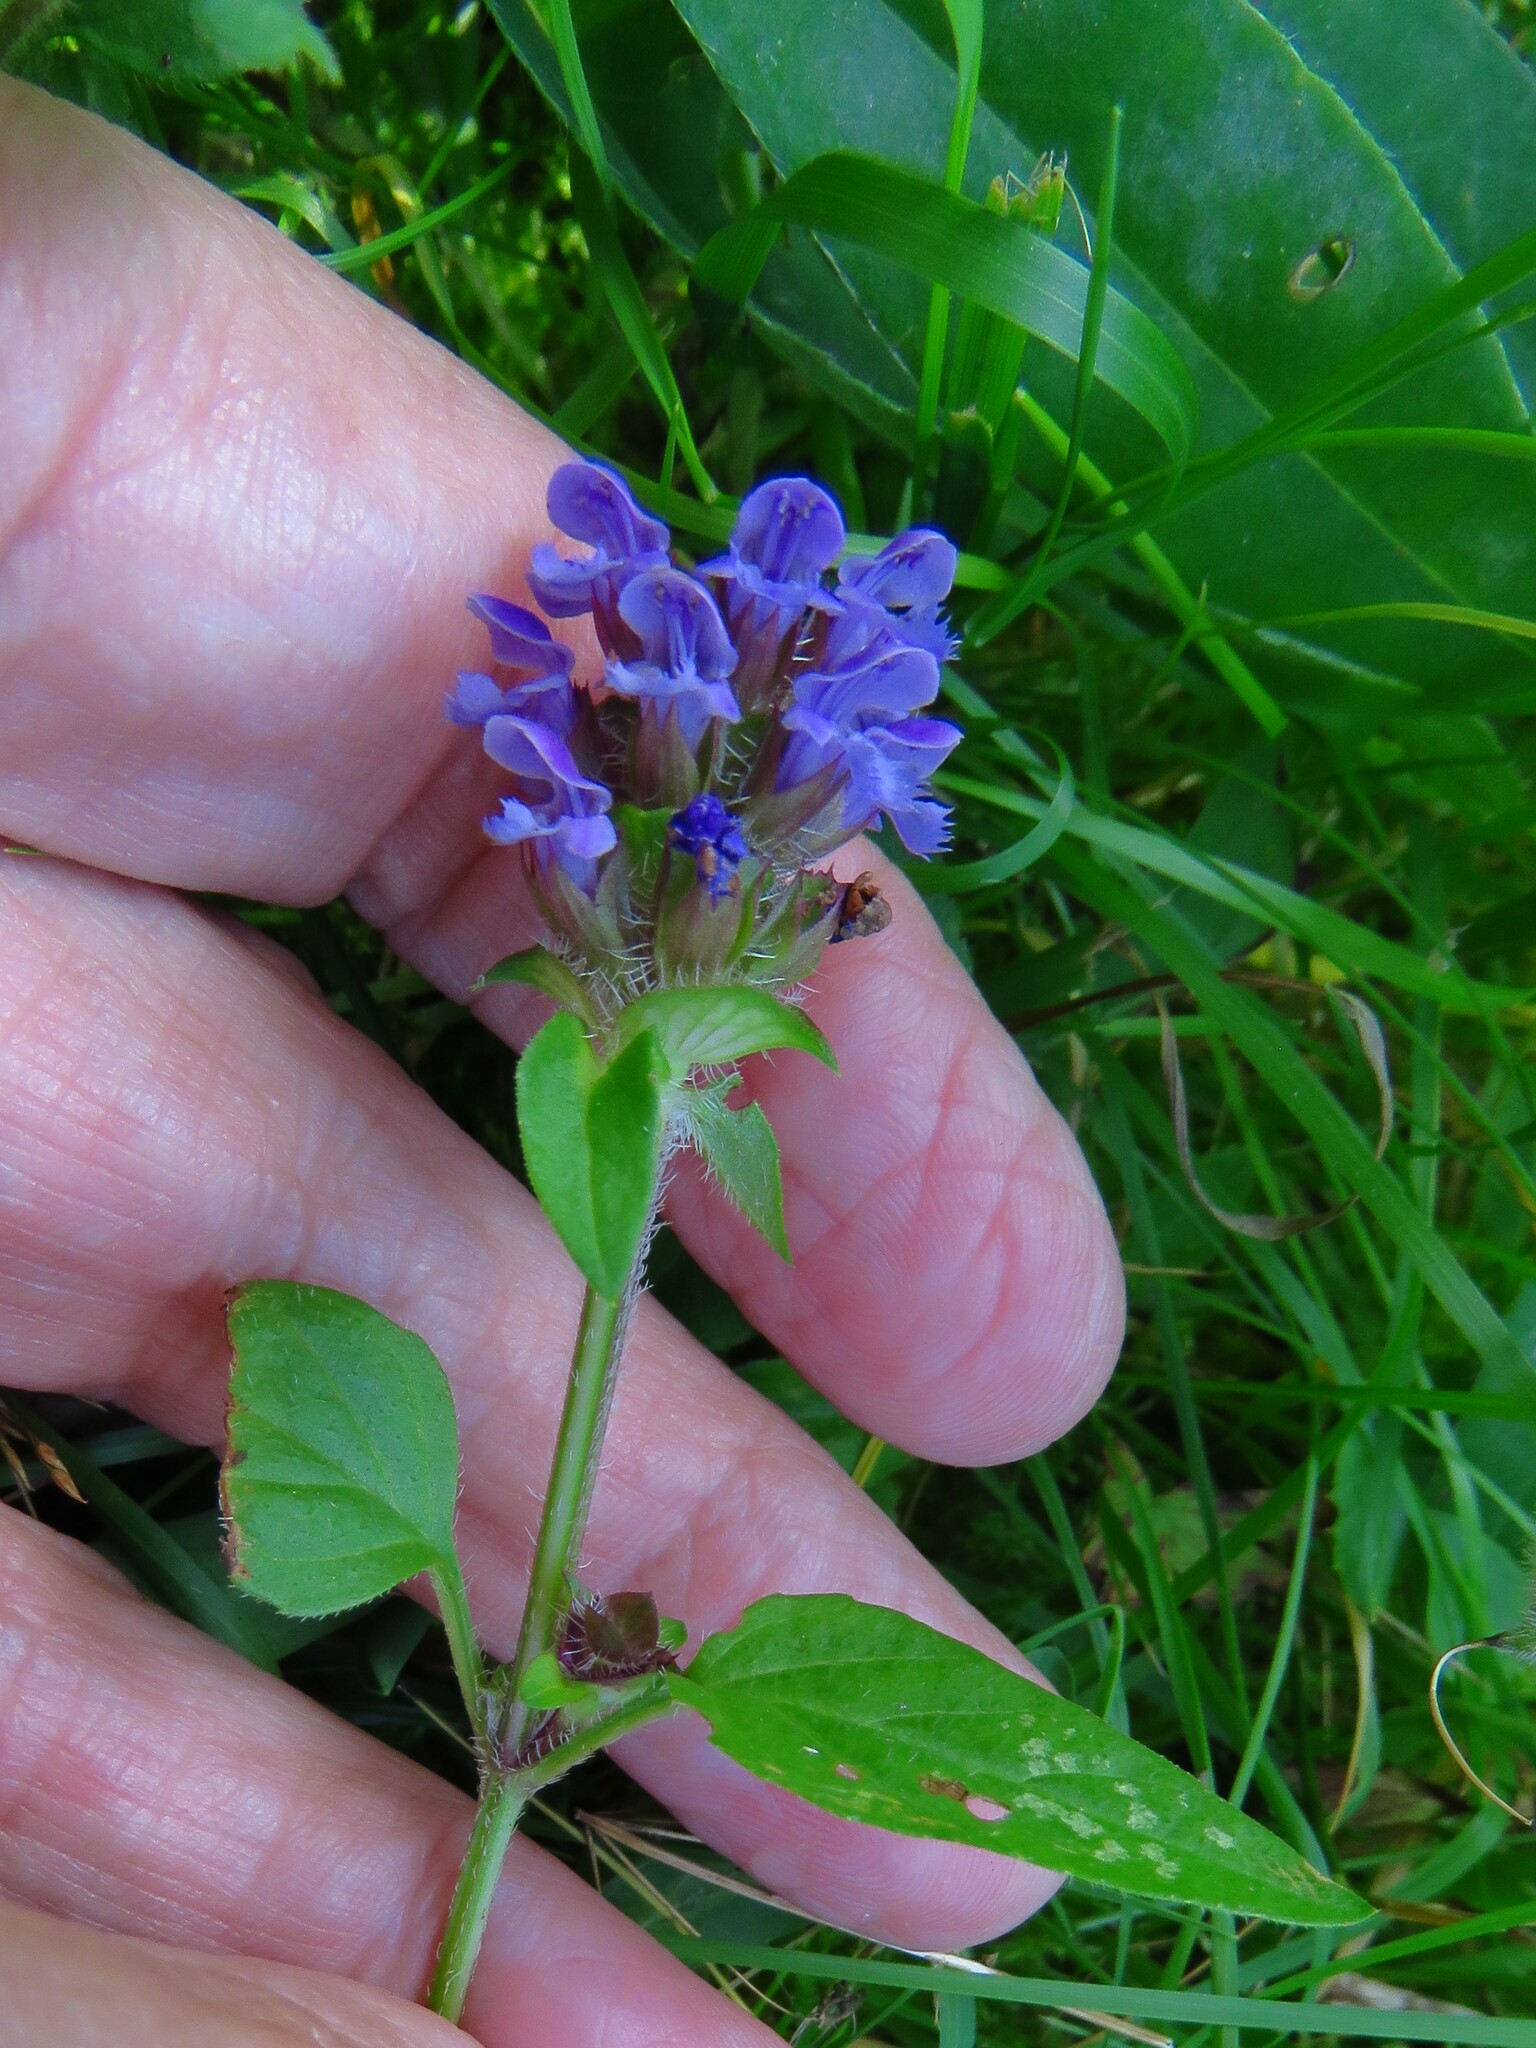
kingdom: Plantae
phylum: Tracheophyta
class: Magnoliopsida
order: Lamiales
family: Lamiaceae
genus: Prunella
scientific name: Prunella vulgaris
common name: Heal-all
